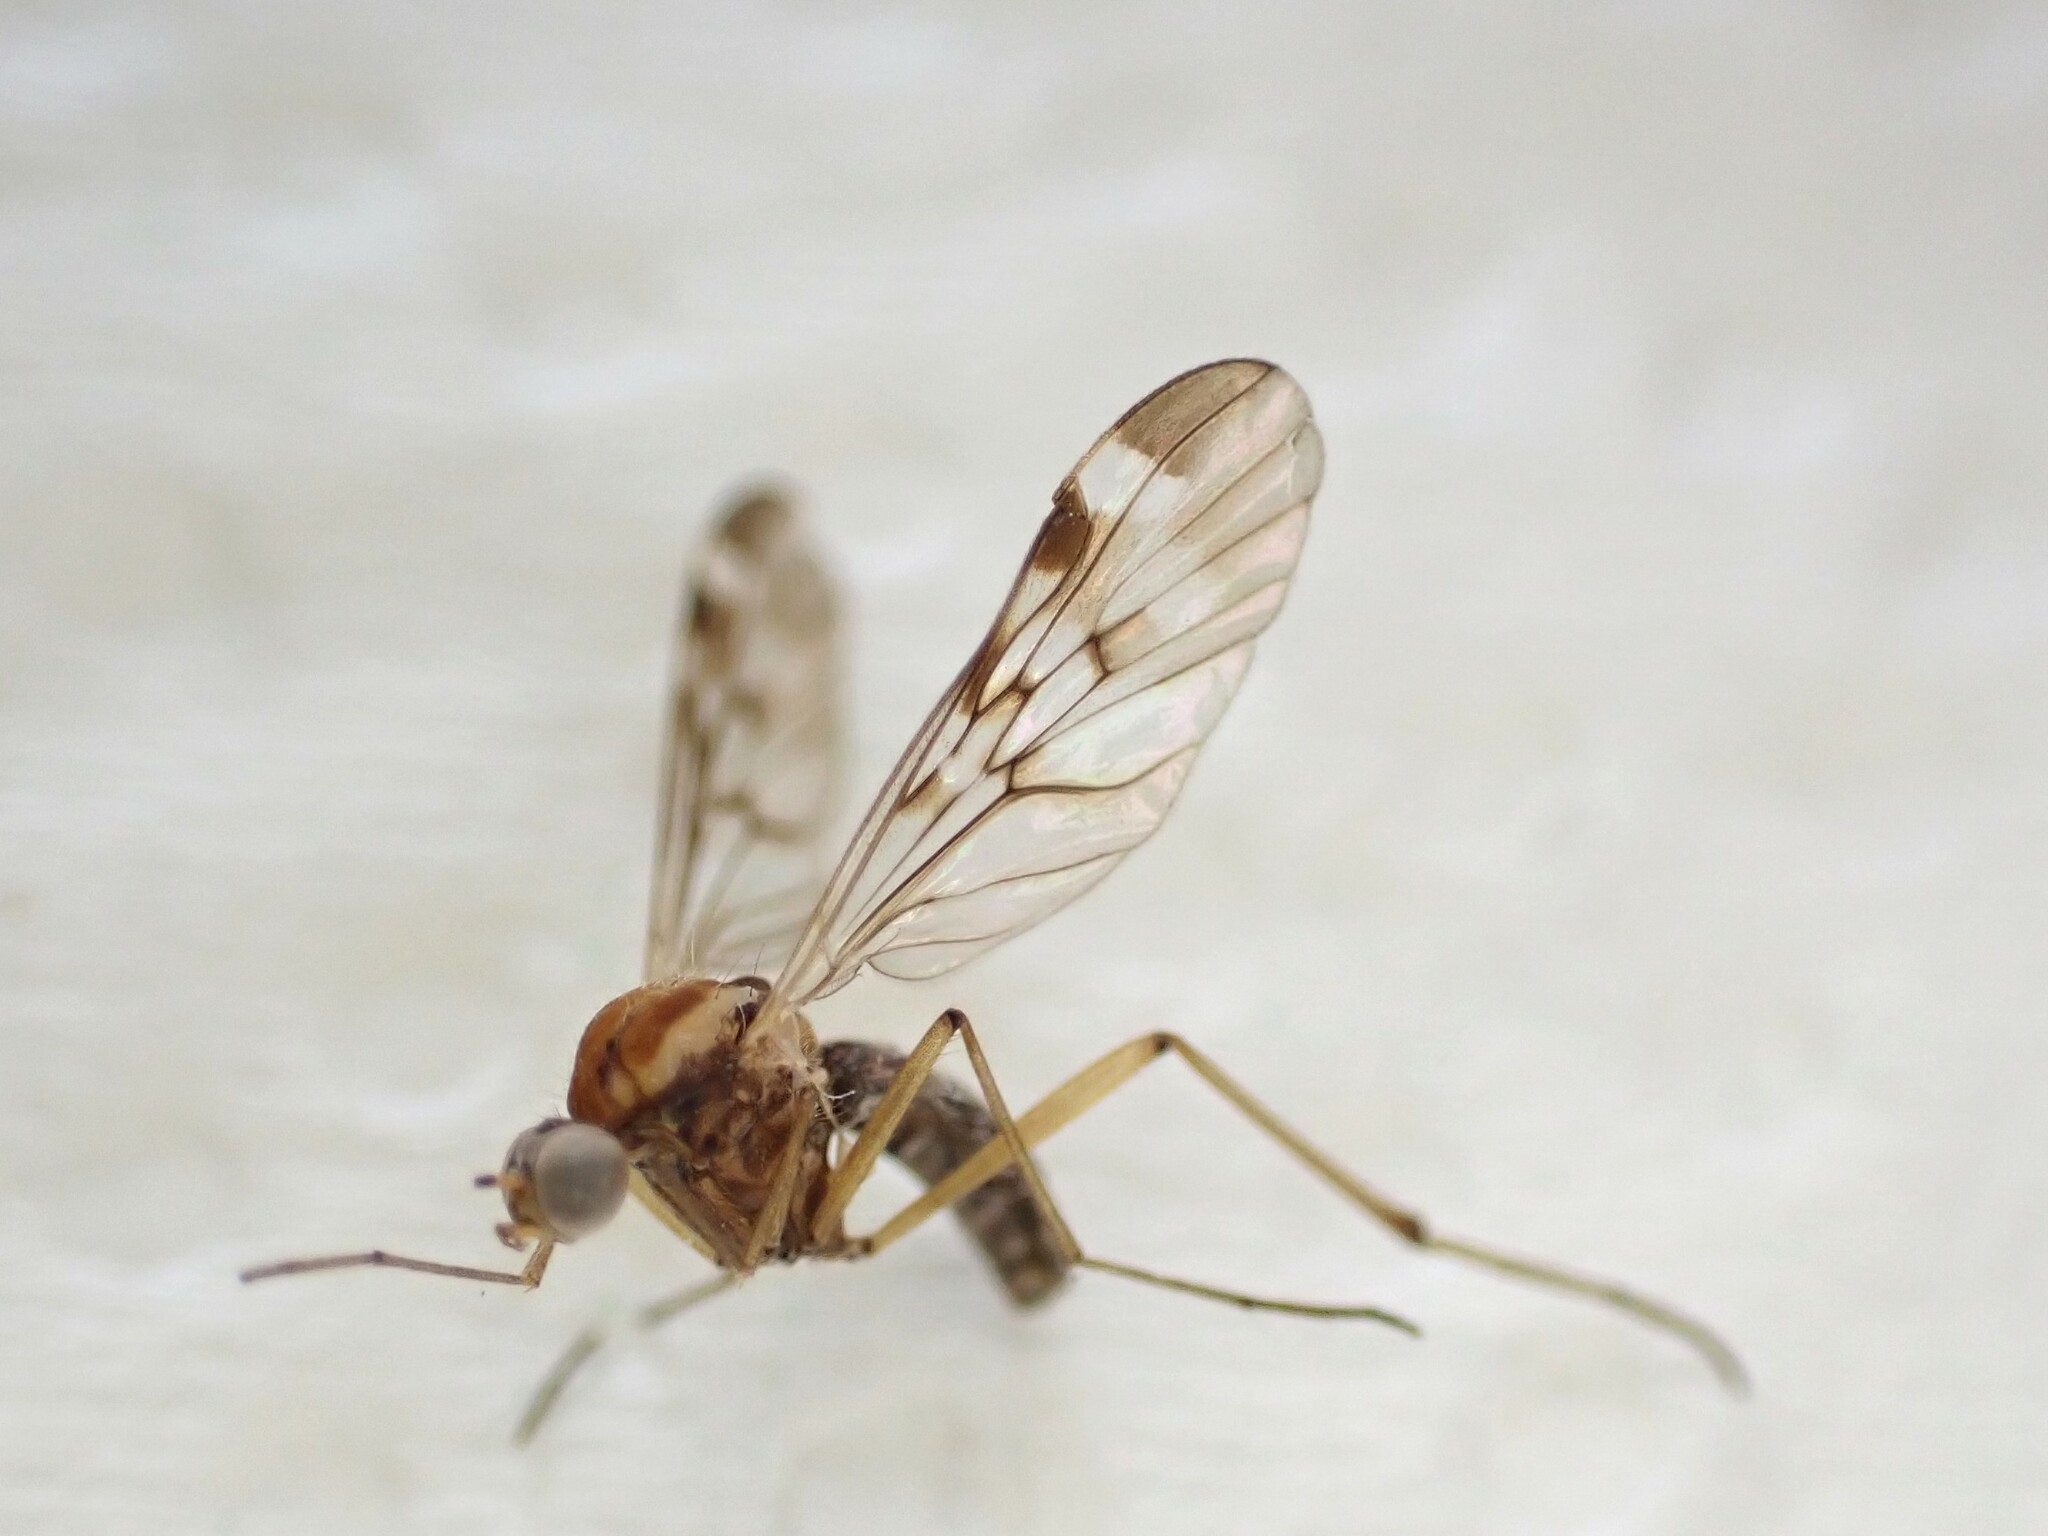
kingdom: Animalia
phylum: Arthropoda
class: Insecta
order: Diptera
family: Anisopodidae
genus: Sylvicola
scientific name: Sylvicola notatus
